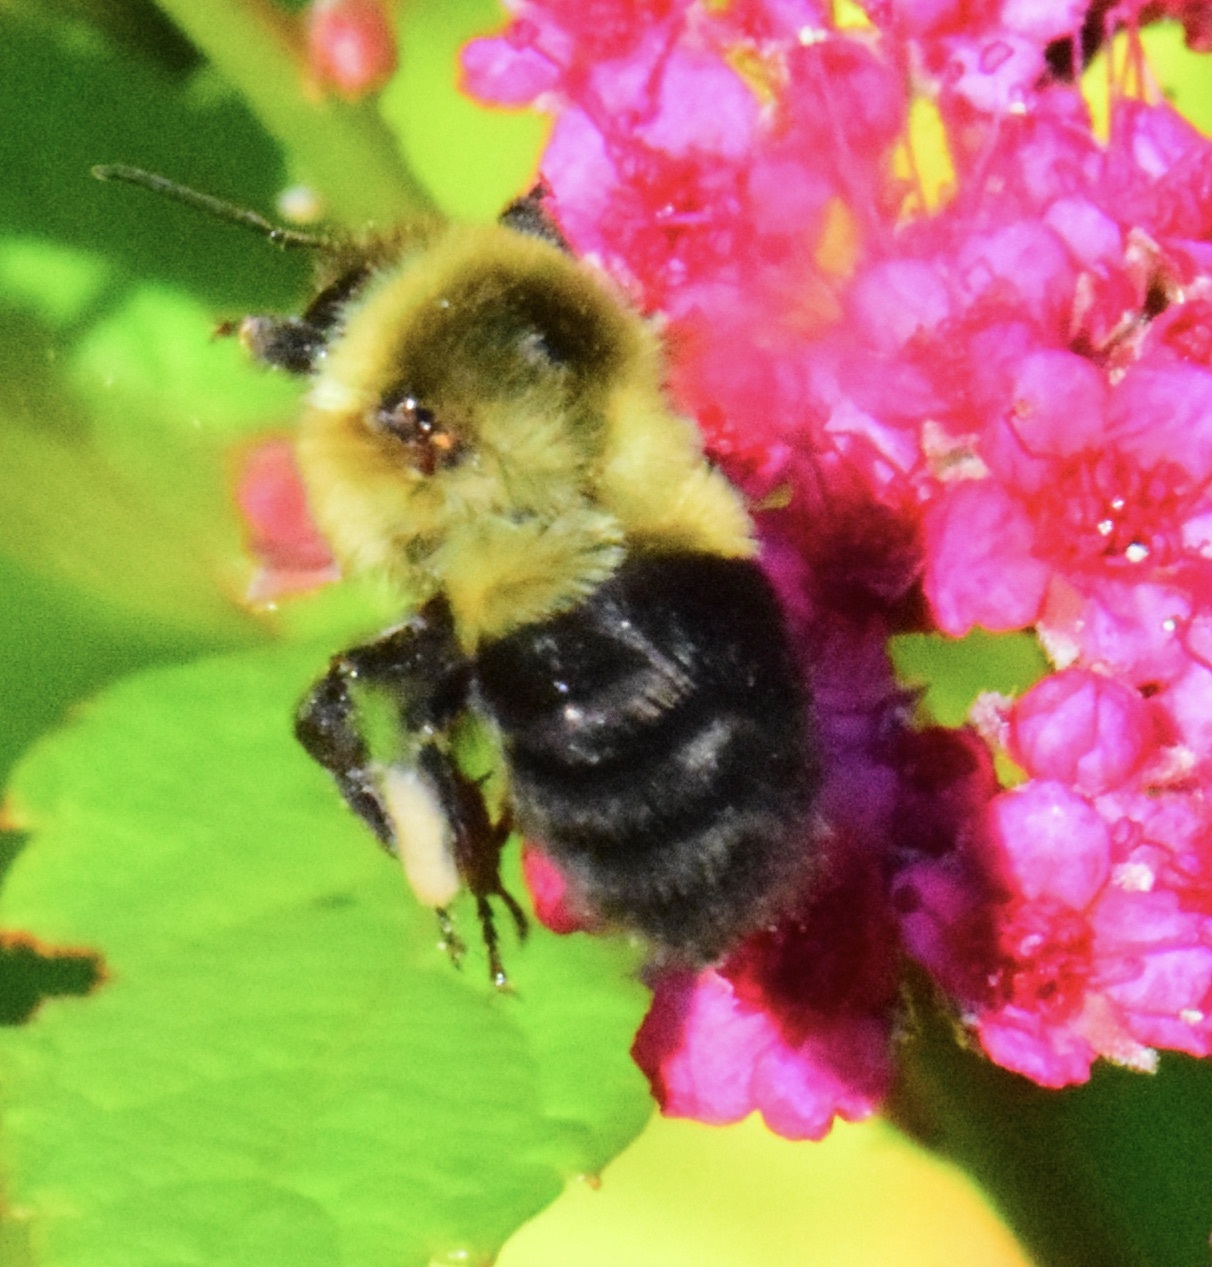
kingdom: Animalia
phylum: Arthropoda
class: Insecta
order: Hymenoptera
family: Apidae
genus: Bombus
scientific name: Bombus impatiens
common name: Common eastern bumble bee
